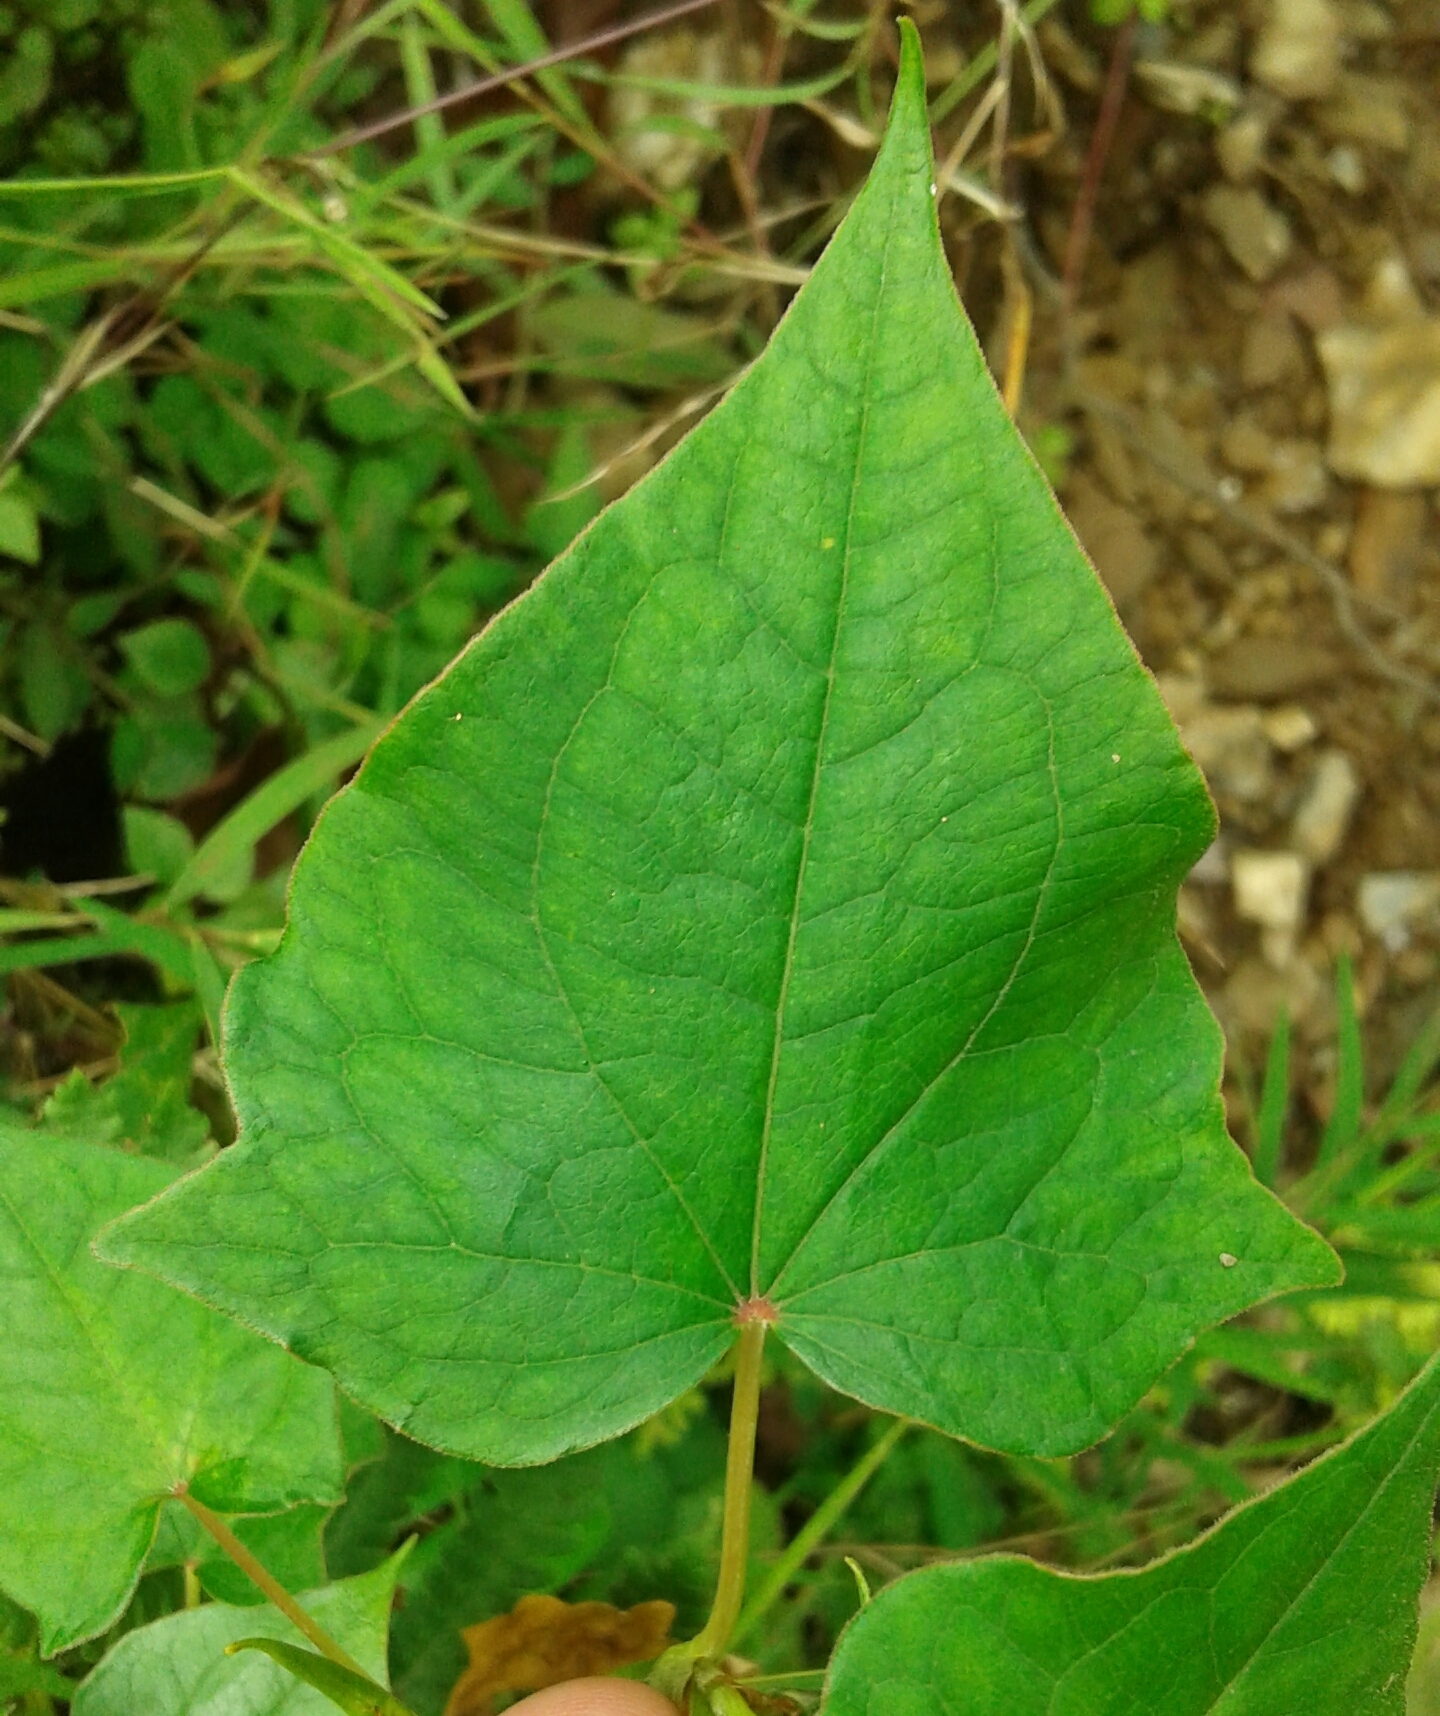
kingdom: Plantae
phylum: Tracheophyta
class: Magnoliopsida
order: Caryophyllales
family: Polygonaceae
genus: Fagopyrum
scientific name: Fagopyrum cymosum
